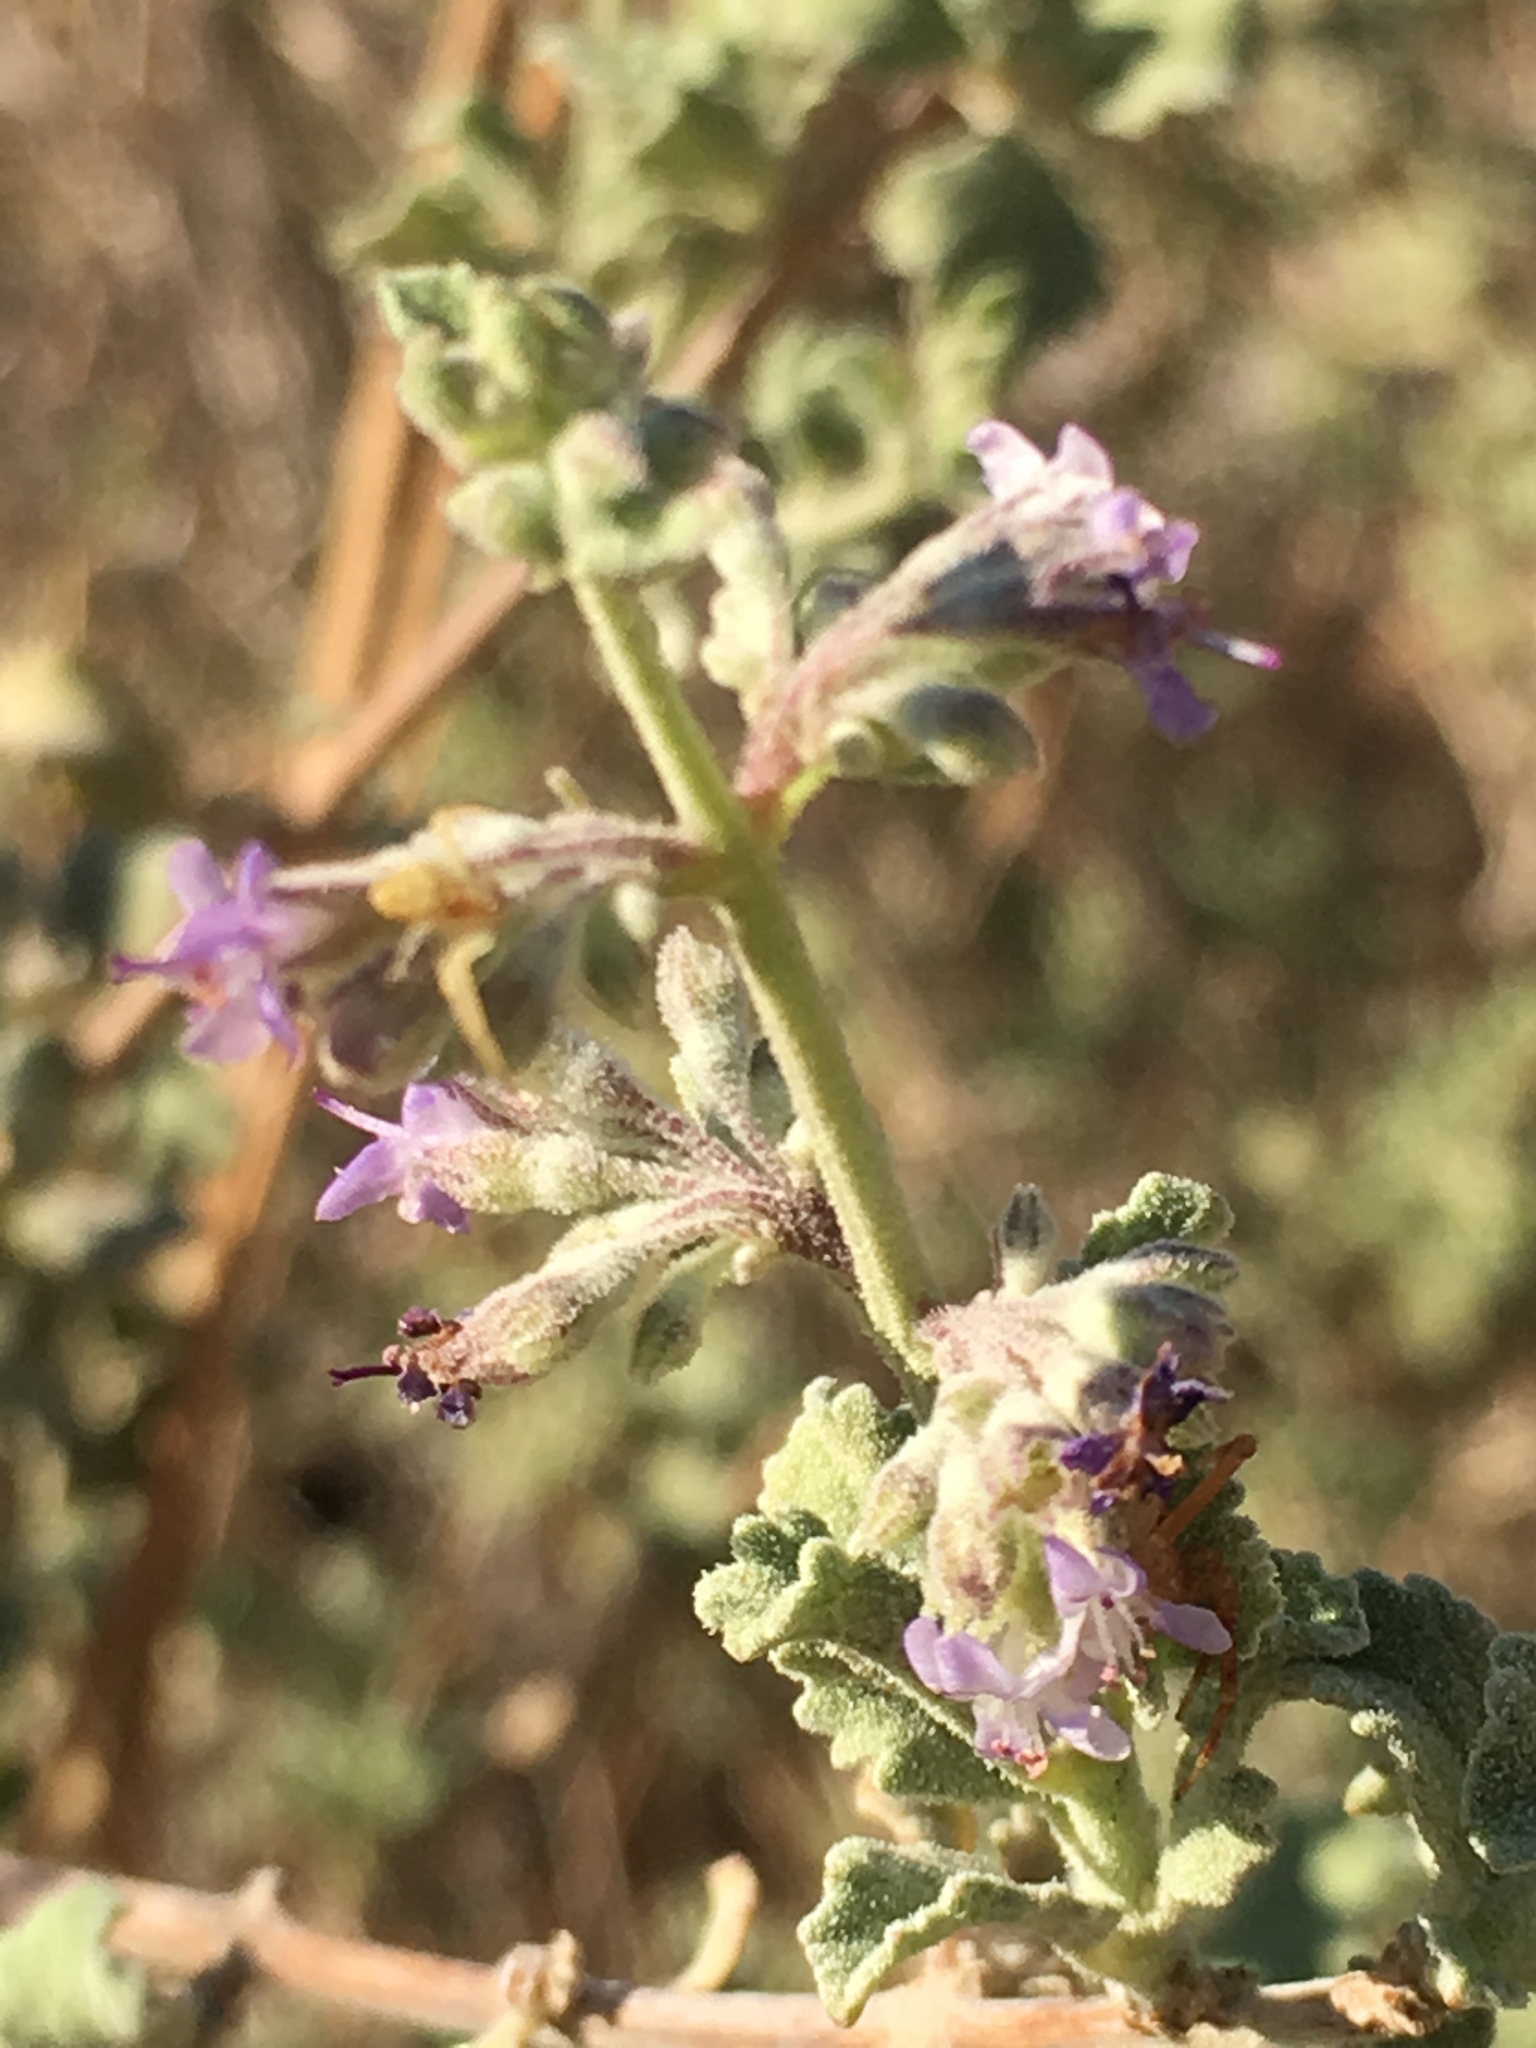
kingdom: Plantae
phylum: Tracheophyta
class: Magnoliopsida
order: Lamiales
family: Lamiaceae
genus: Condea
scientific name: Condea emoryi
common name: Chia
